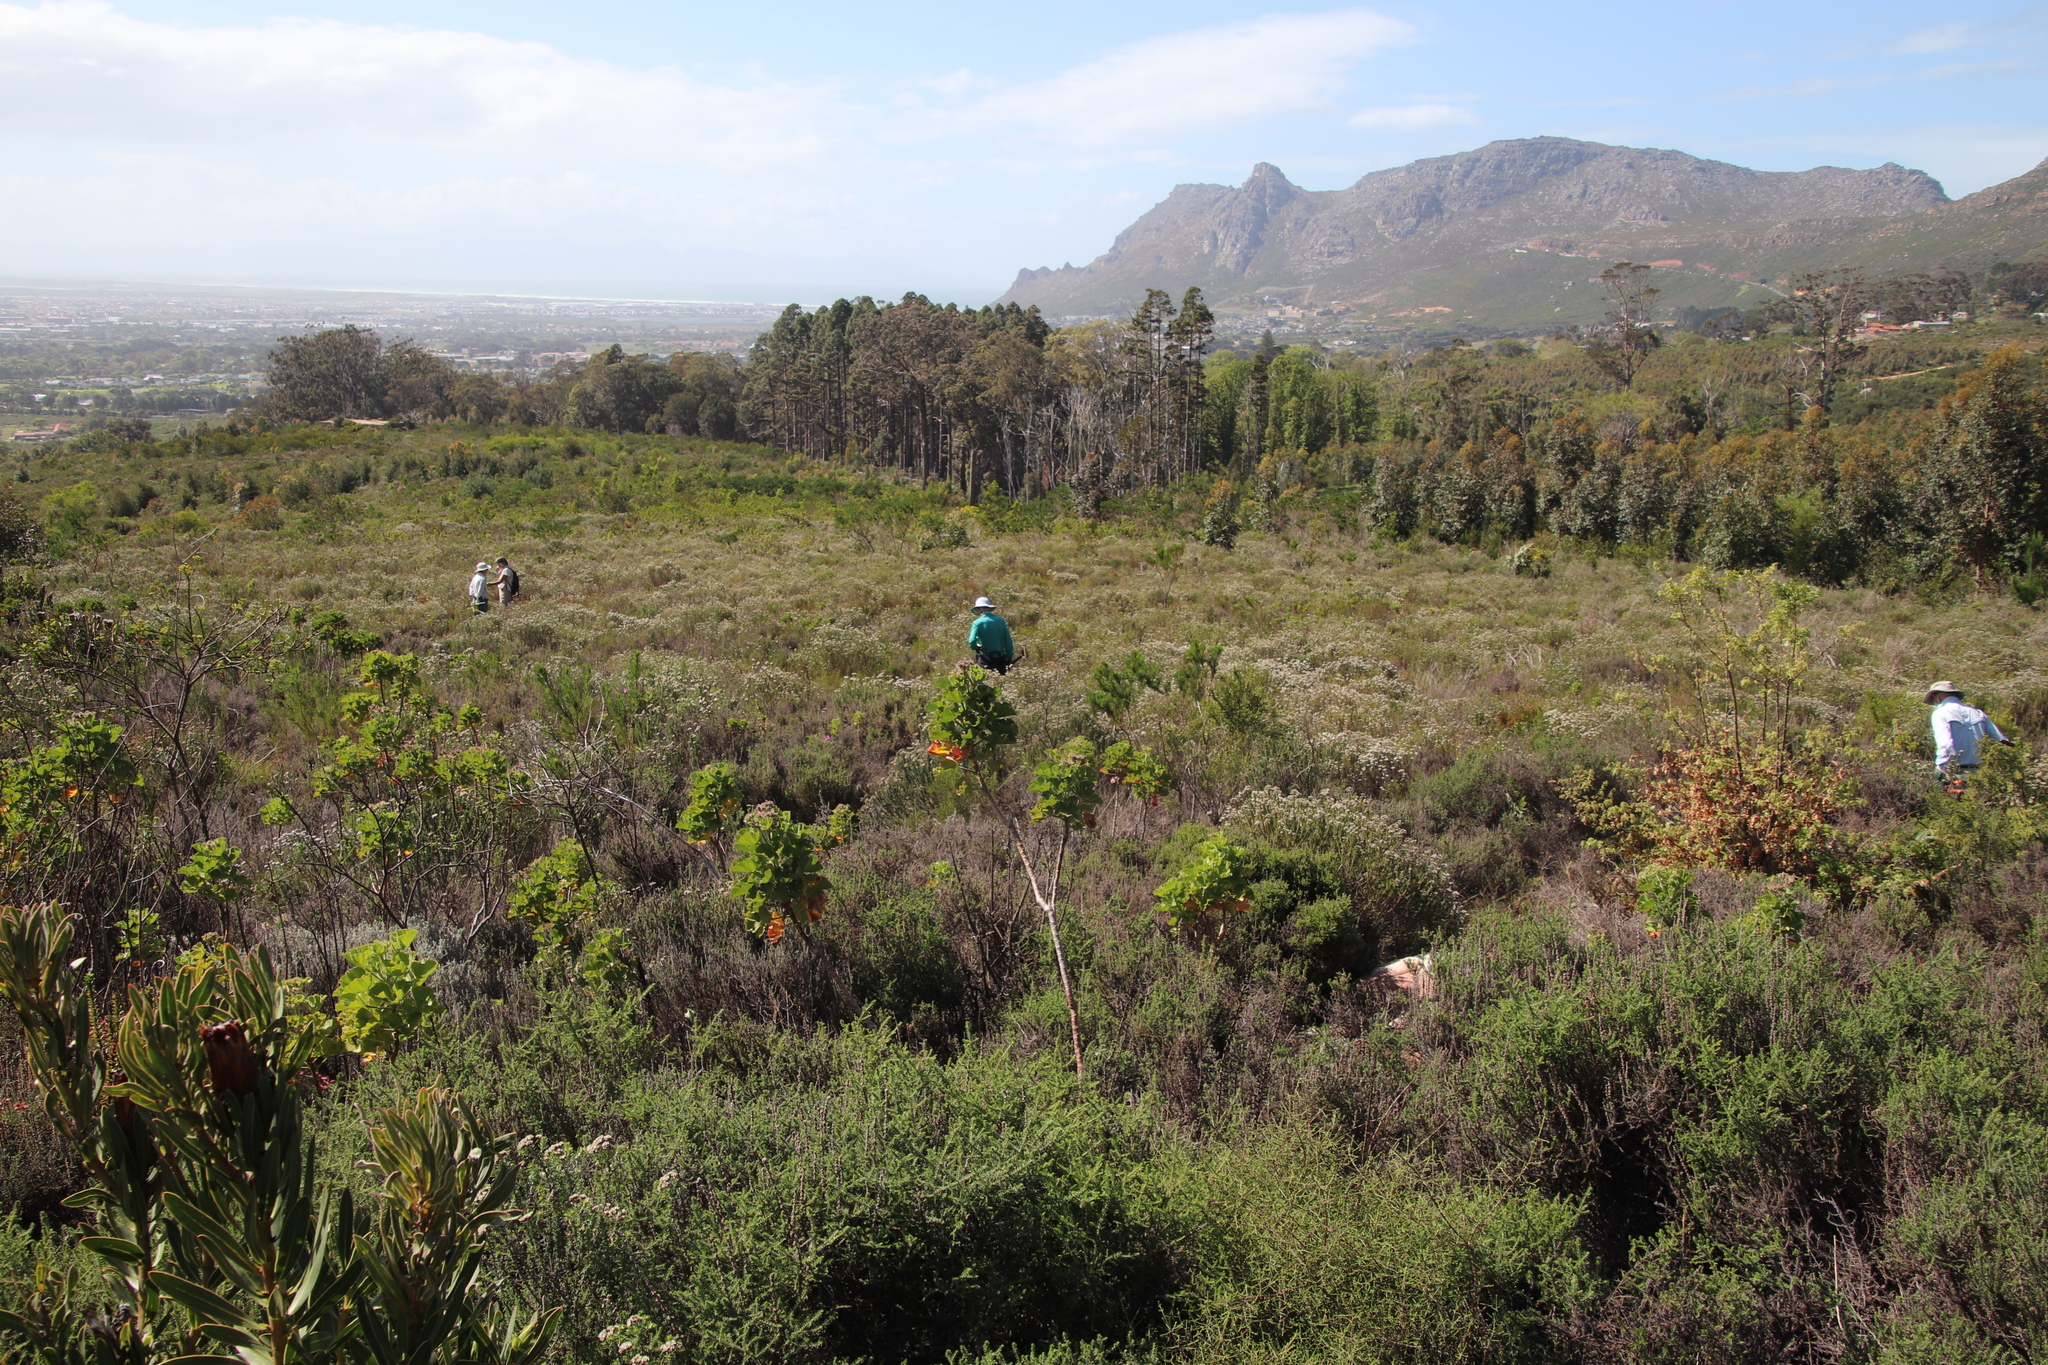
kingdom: Plantae
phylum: Tracheophyta
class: Magnoliopsida
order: Geraniales
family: Geraniaceae
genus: Pelargonium
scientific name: Pelargonium cucullatum
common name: Tree pelargonium
